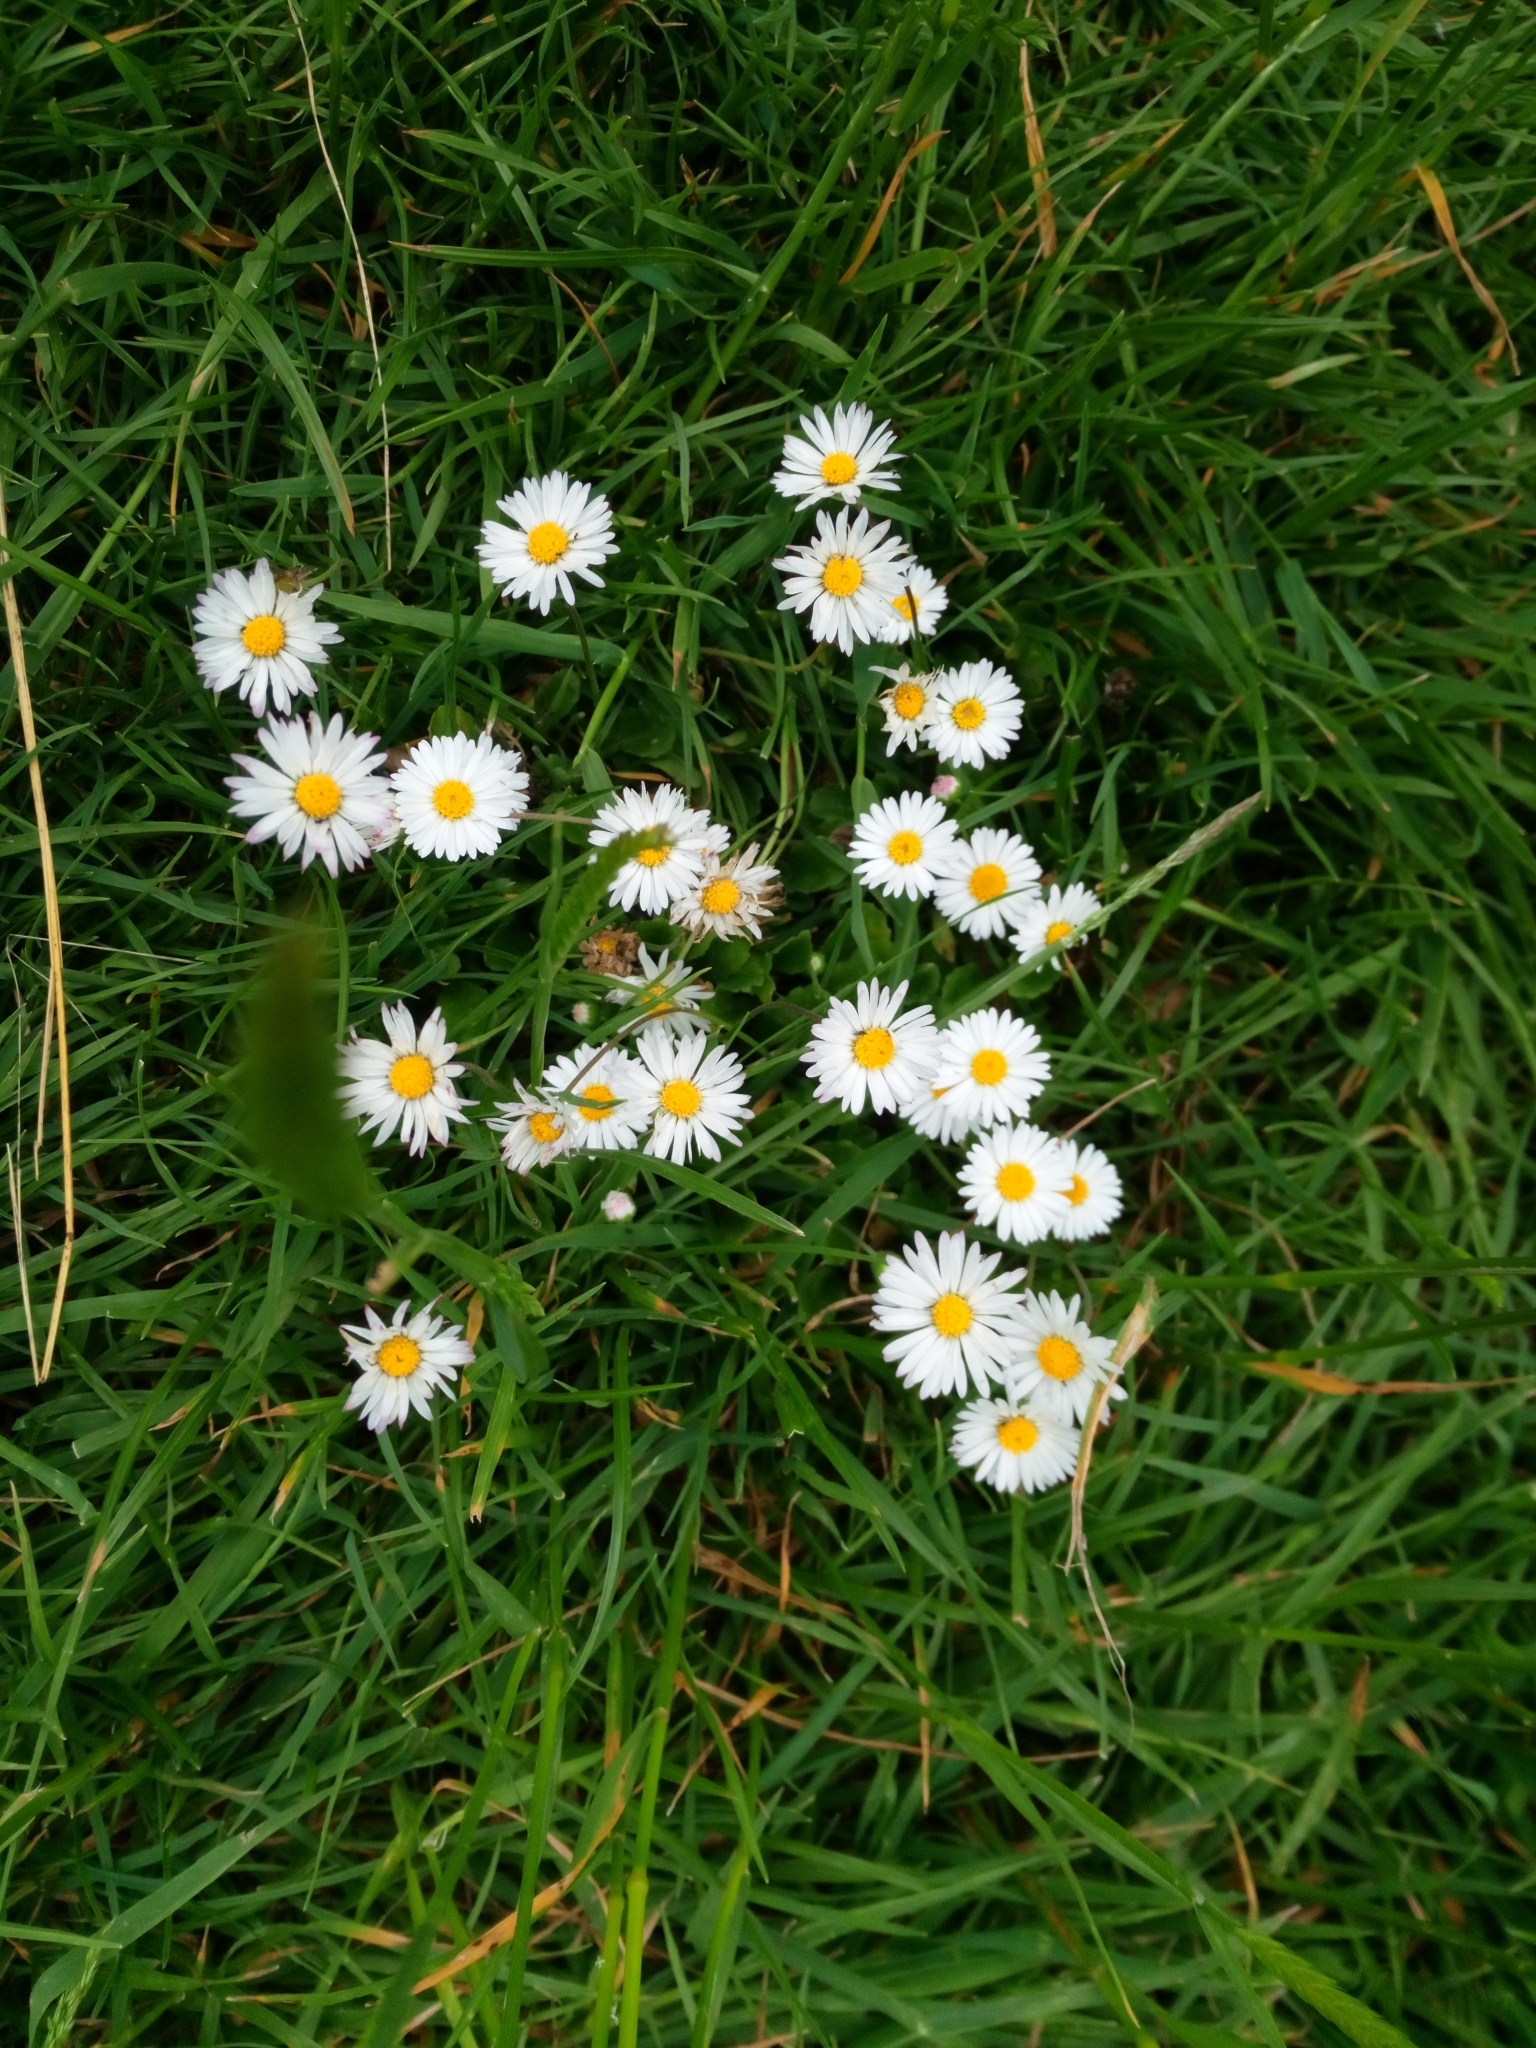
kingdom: Plantae
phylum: Tracheophyta
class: Magnoliopsida
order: Asterales
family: Asteraceae
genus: Bellis
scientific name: Bellis perennis
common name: Lawndaisy
